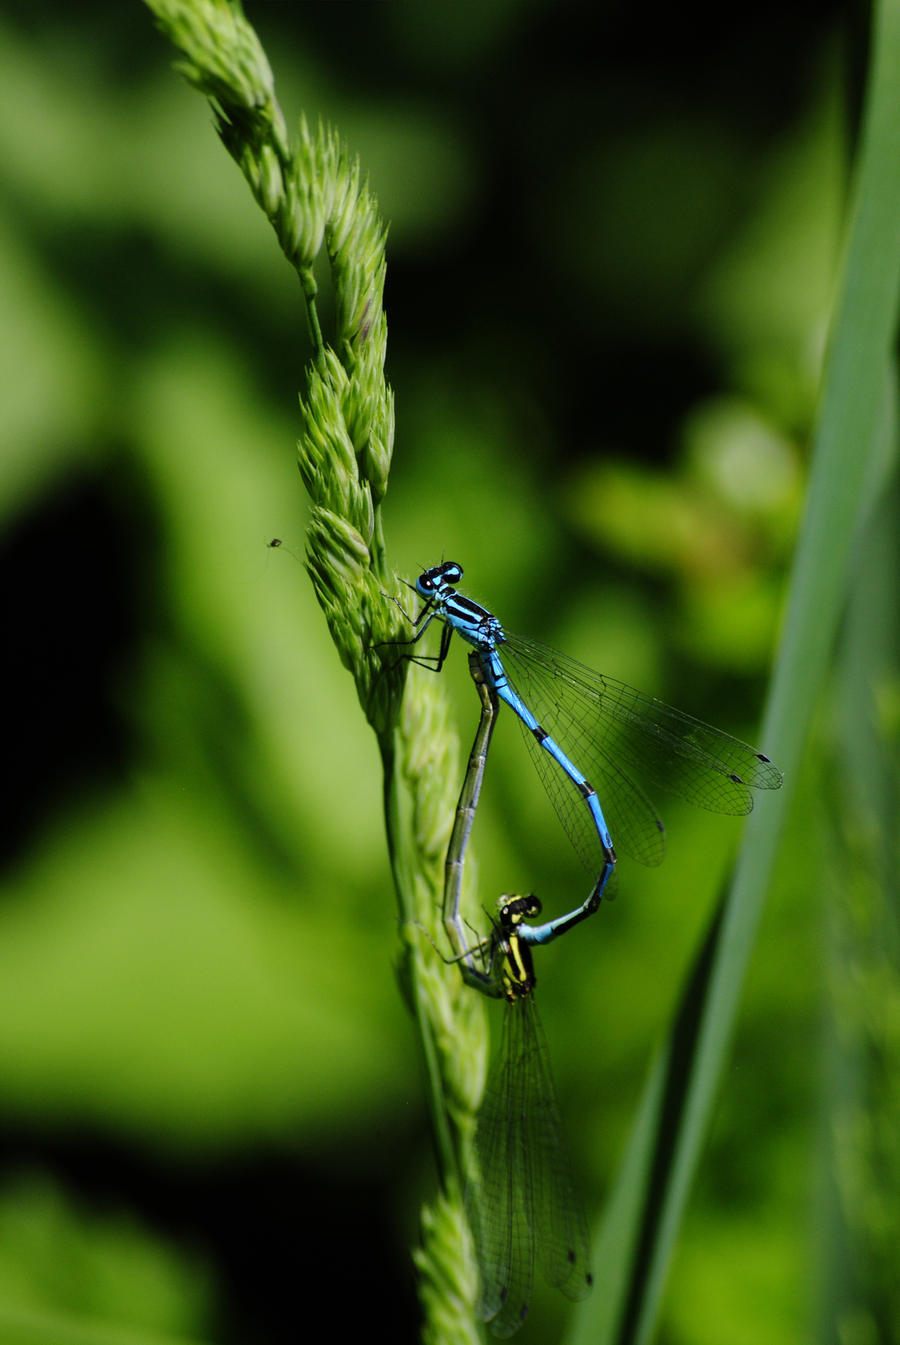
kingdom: Animalia
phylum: Arthropoda
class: Insecta
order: Odonata
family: Coenagrionidae
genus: Coenagrion
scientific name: Coenagrion puella
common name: Azure damselfly
